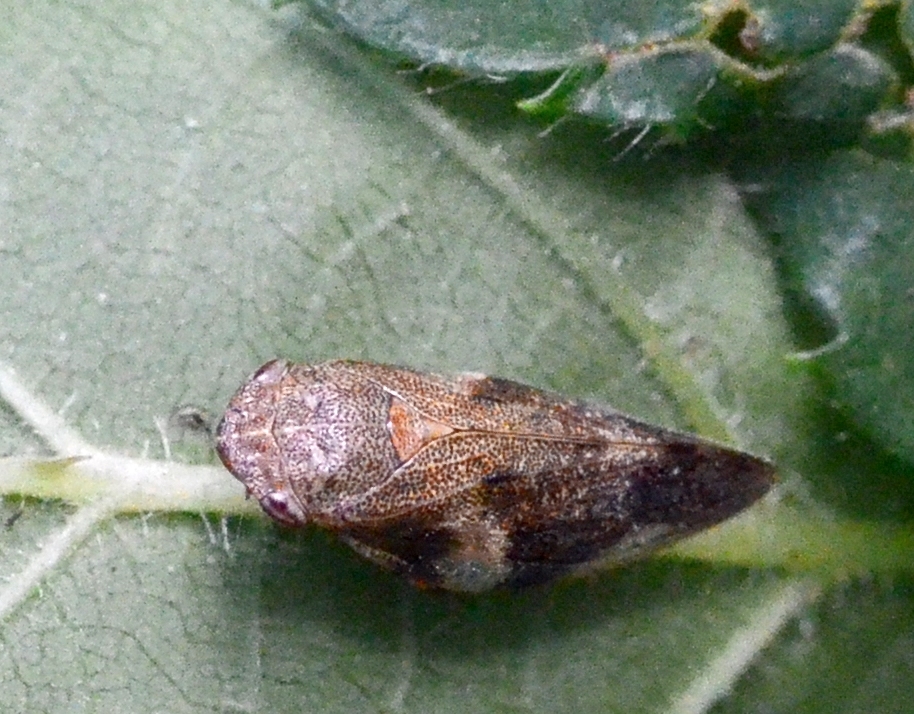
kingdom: Animalia
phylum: Arthropoda
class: Insecta
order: Hemiptera
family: Aphrophoridae
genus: Aphrophora
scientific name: Aphrophora alni
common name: European alder spittlebug
